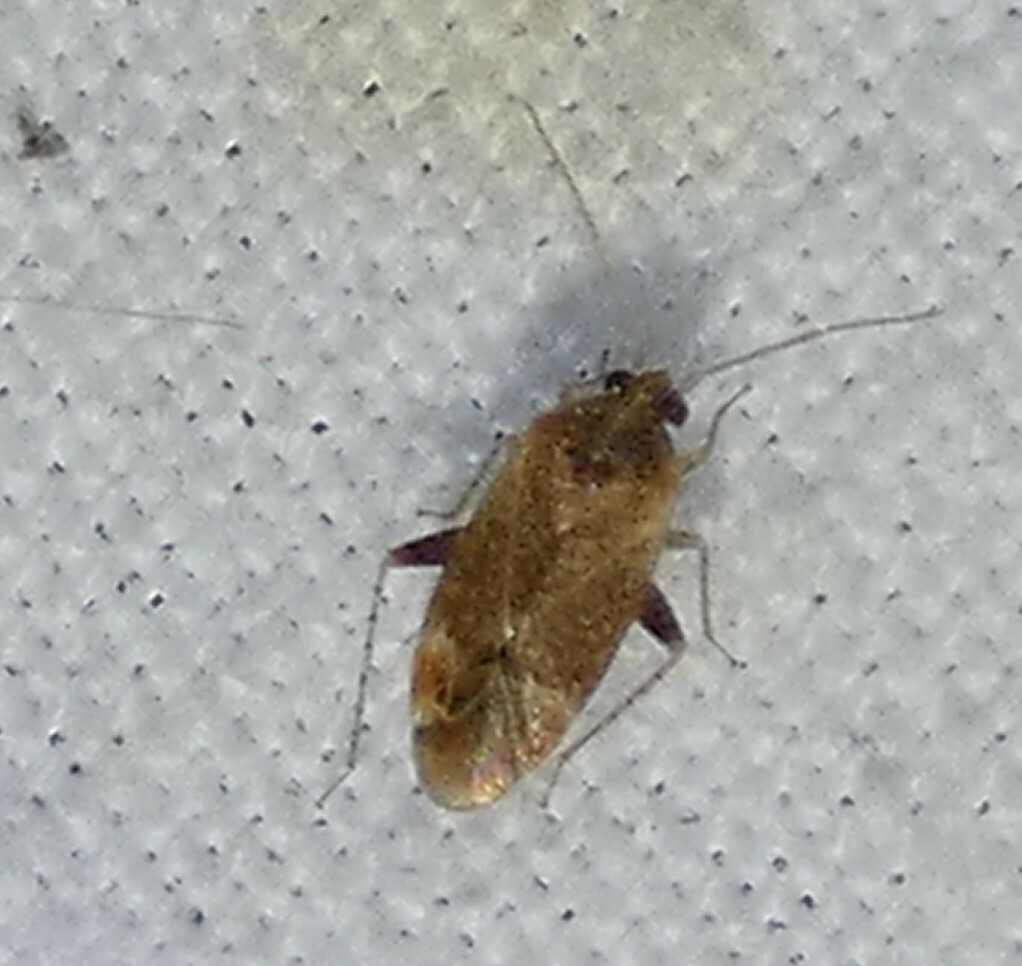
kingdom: Animalia
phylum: Arthropoda
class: Insecta
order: Hemiptera
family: Miridae
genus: Hamatophylus
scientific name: Hamatophylus guttulosus
